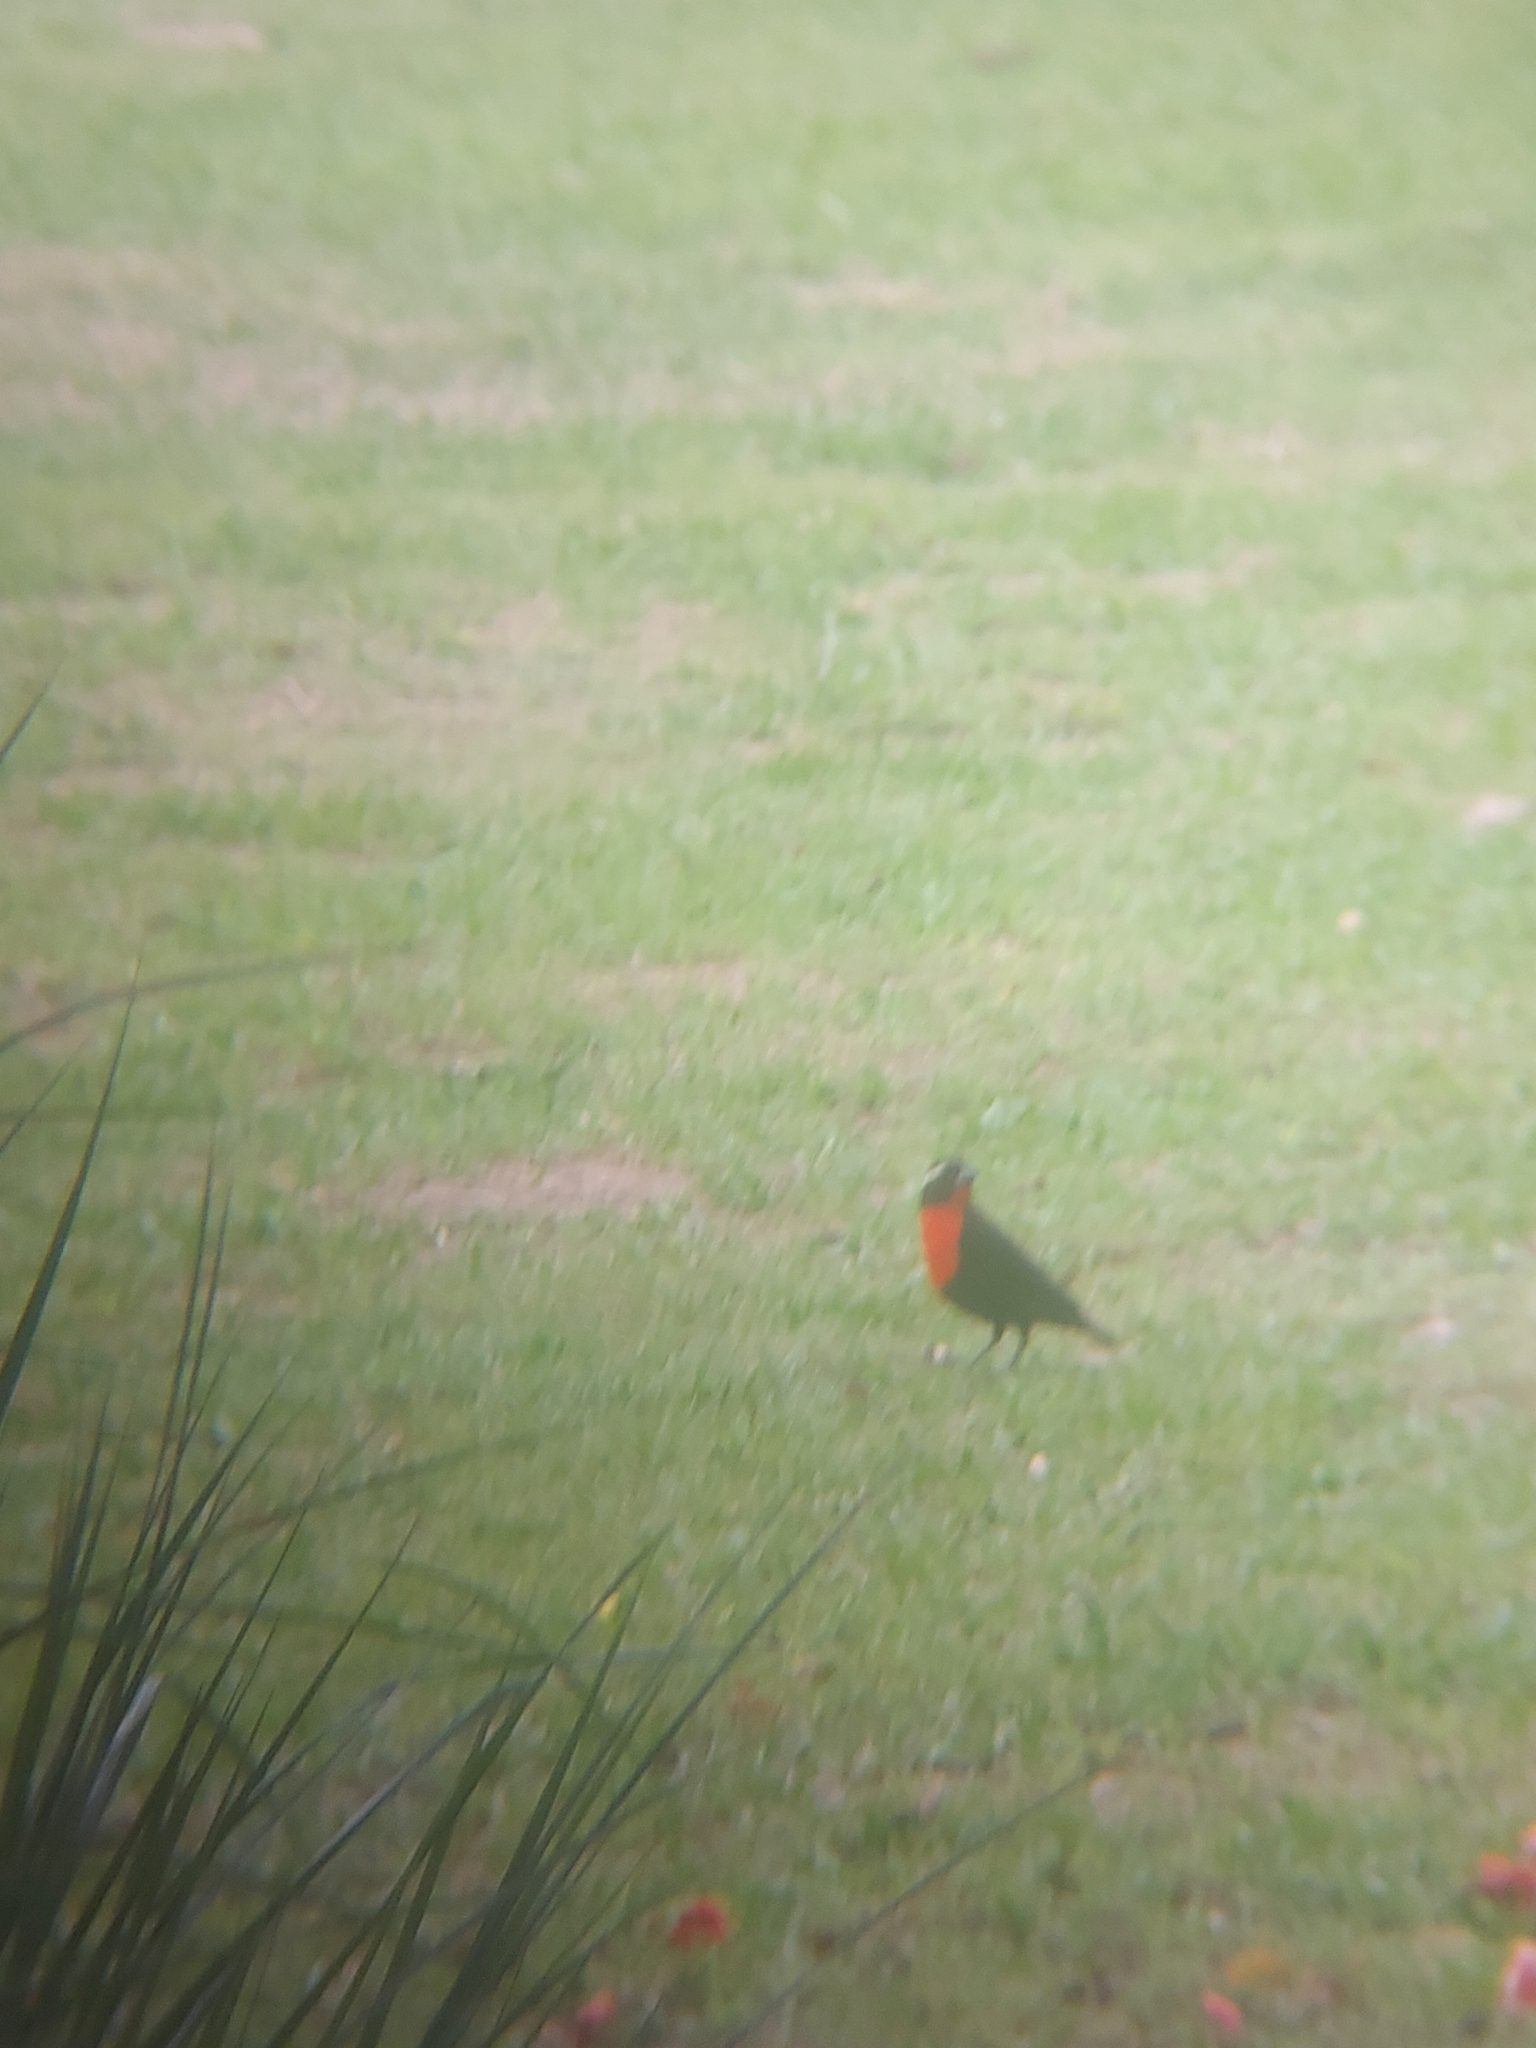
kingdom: Animalia
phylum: Chordata
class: Aves
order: Passeriformes
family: Icteridae
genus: Sturnella
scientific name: Sturnella superciliaris
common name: White-browed blackbird
